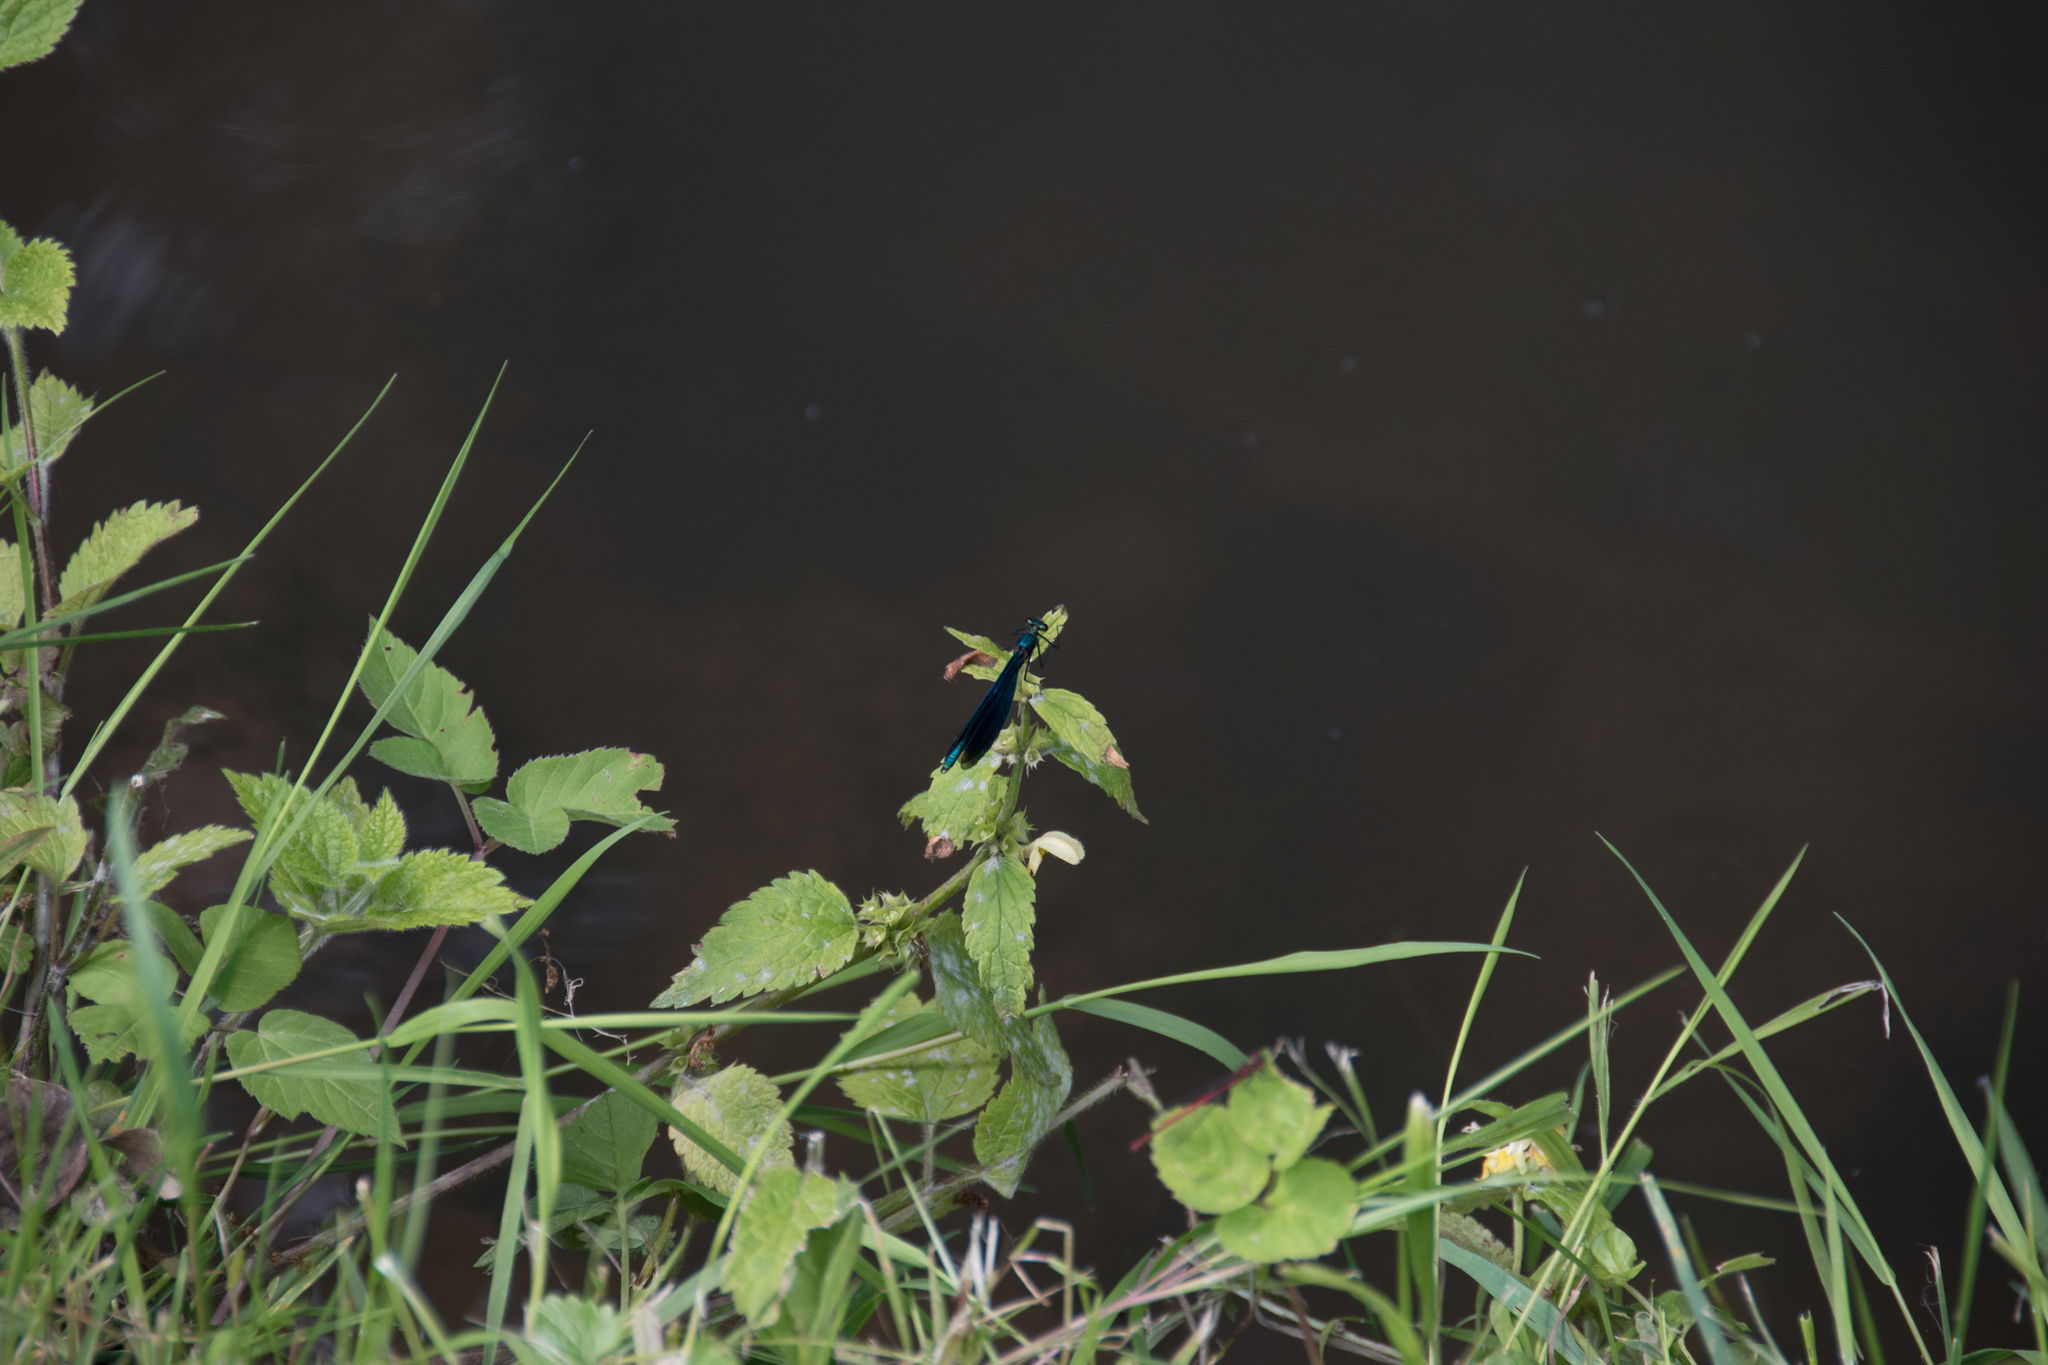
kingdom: Animalia
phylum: Arthropoda
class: Insecta
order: Odonata
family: Calopterygidae
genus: Calopteryx
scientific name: Calopteryx virgo
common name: Beautiful demoiselle
